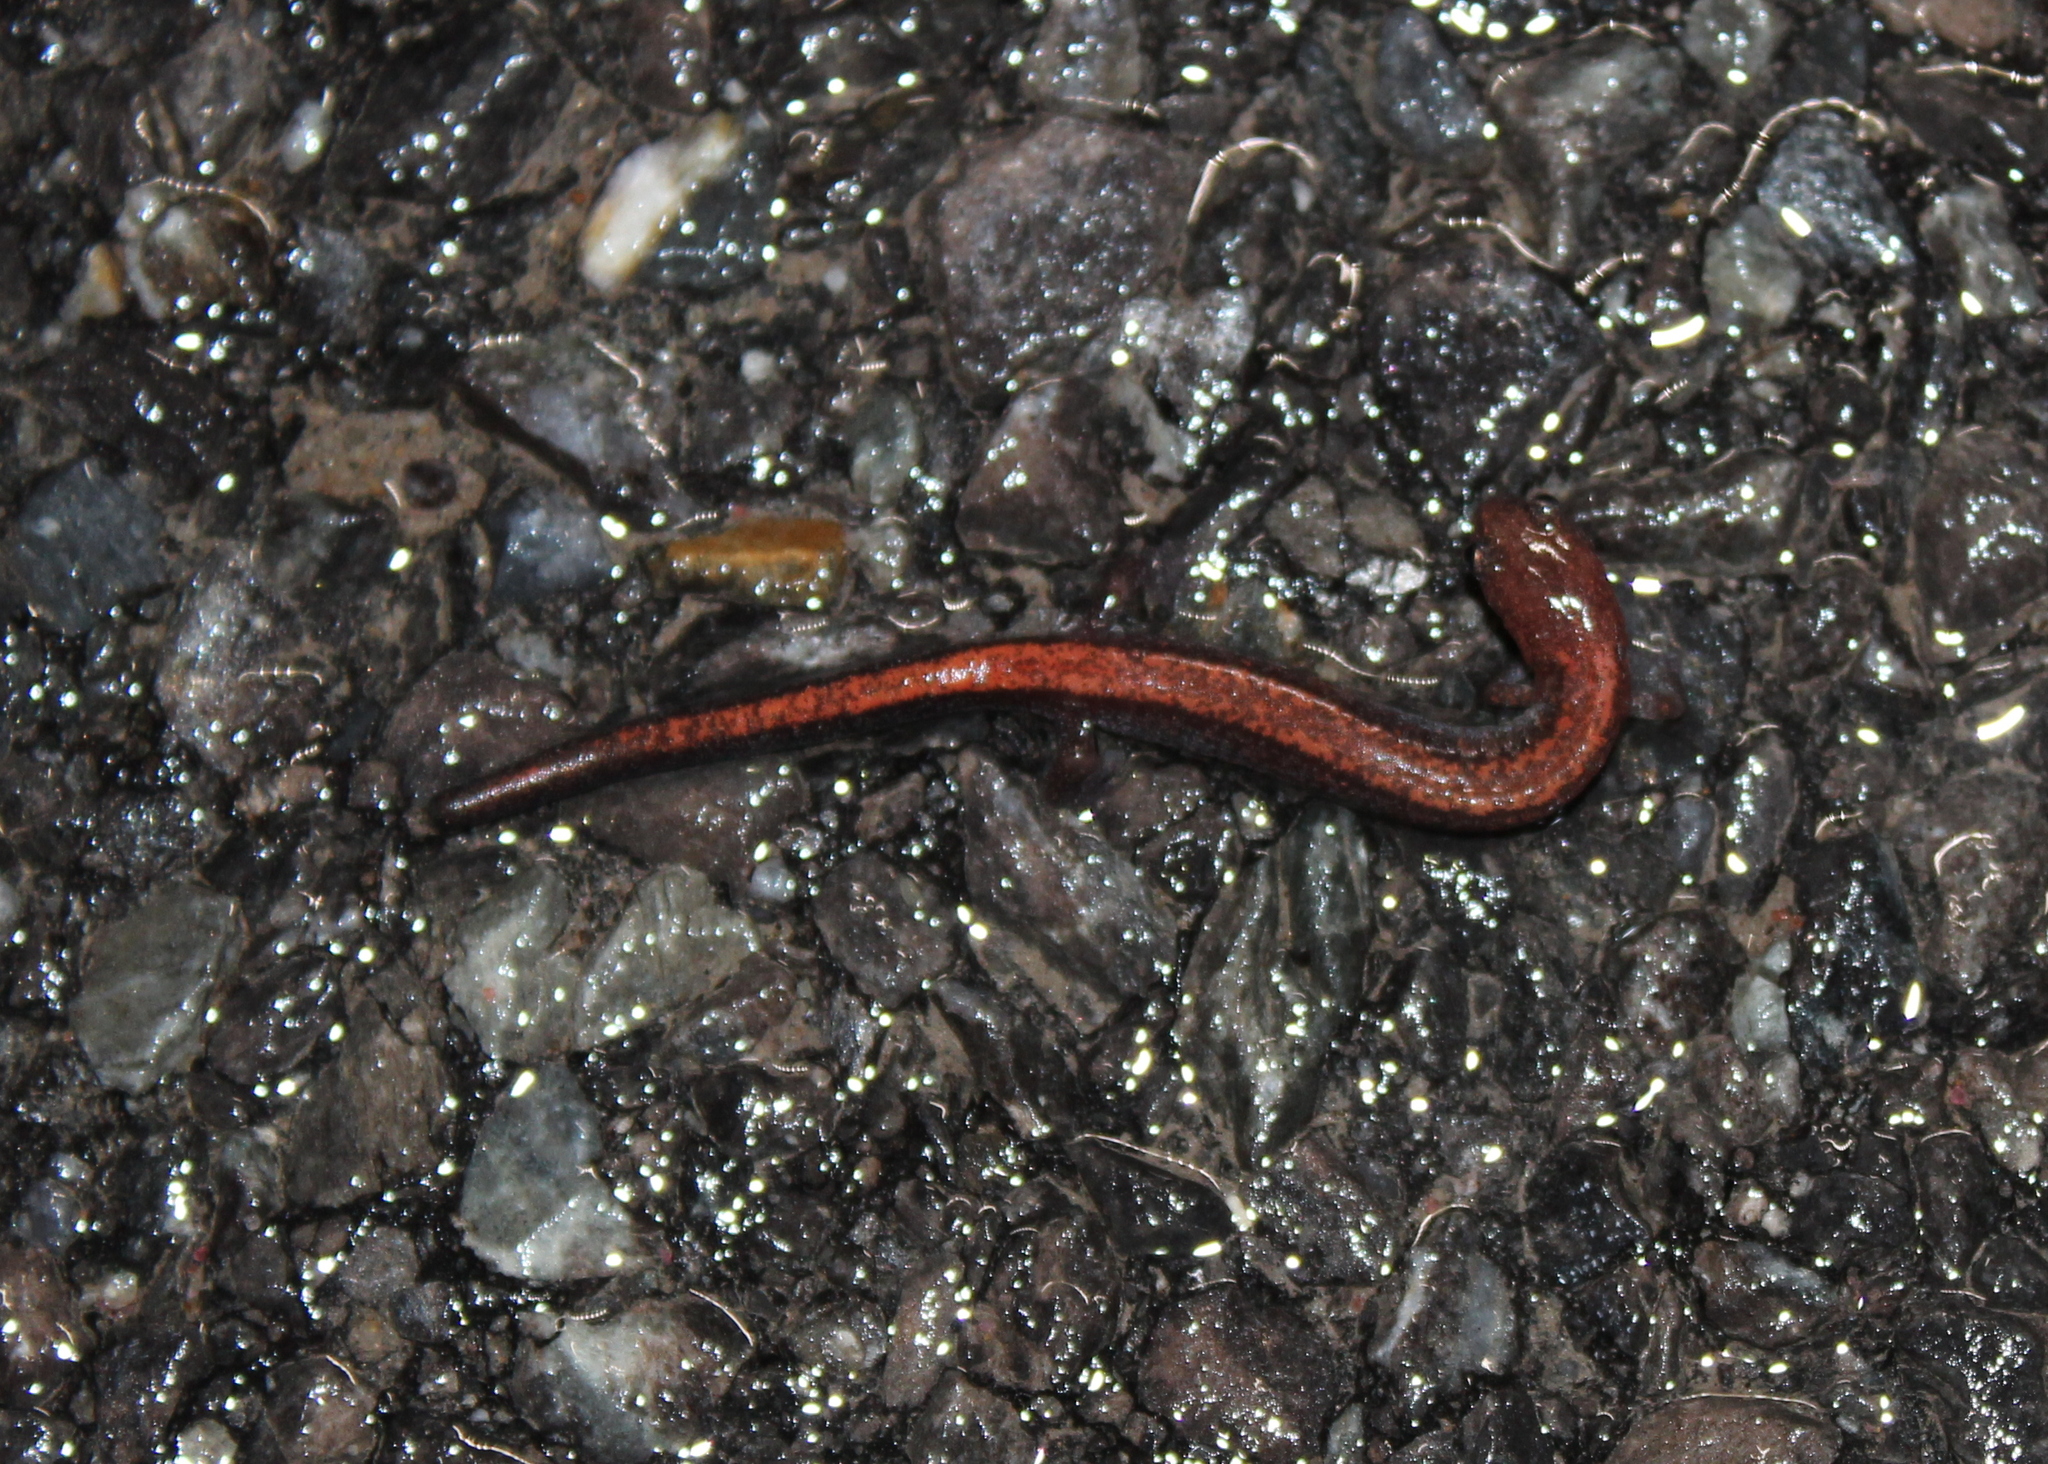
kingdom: Animalia
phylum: Chordata
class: Amphibia
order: Caudata
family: Plethodontidae
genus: Plethodon
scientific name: Plethodon cinereus
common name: Redback salamander
